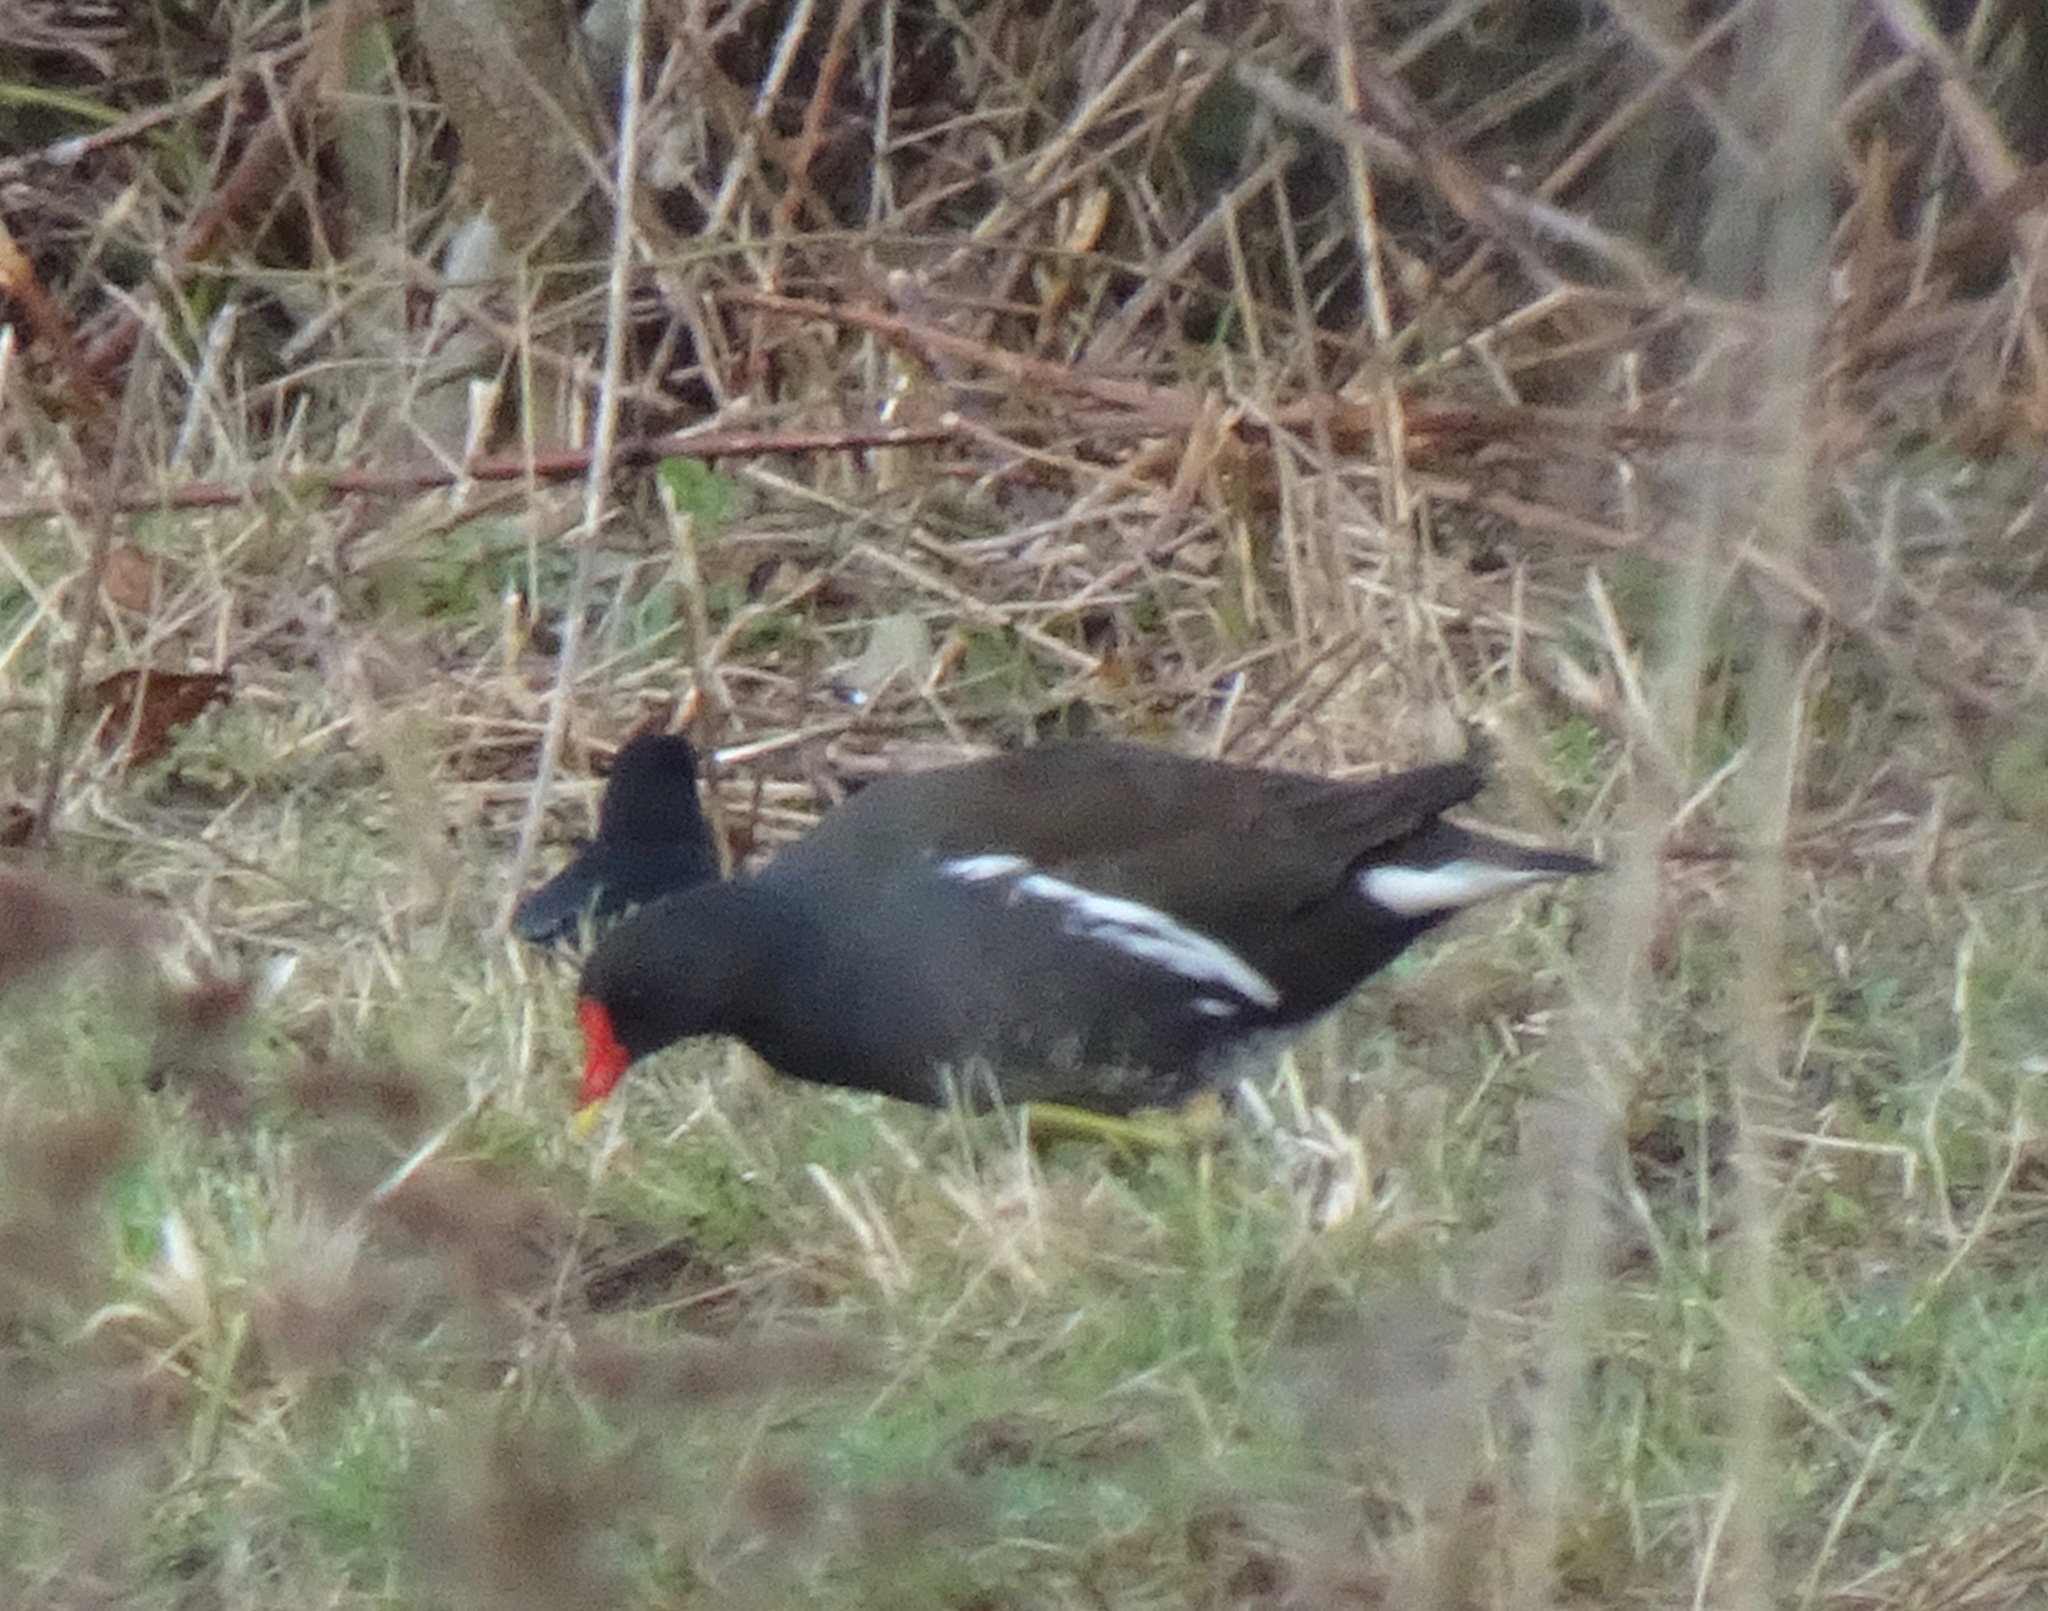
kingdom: Animalia
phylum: Chordata
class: Aves
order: Gruiformes
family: Rallidae
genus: Gallinula
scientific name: Gallinula chloropus
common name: Common moorhen
